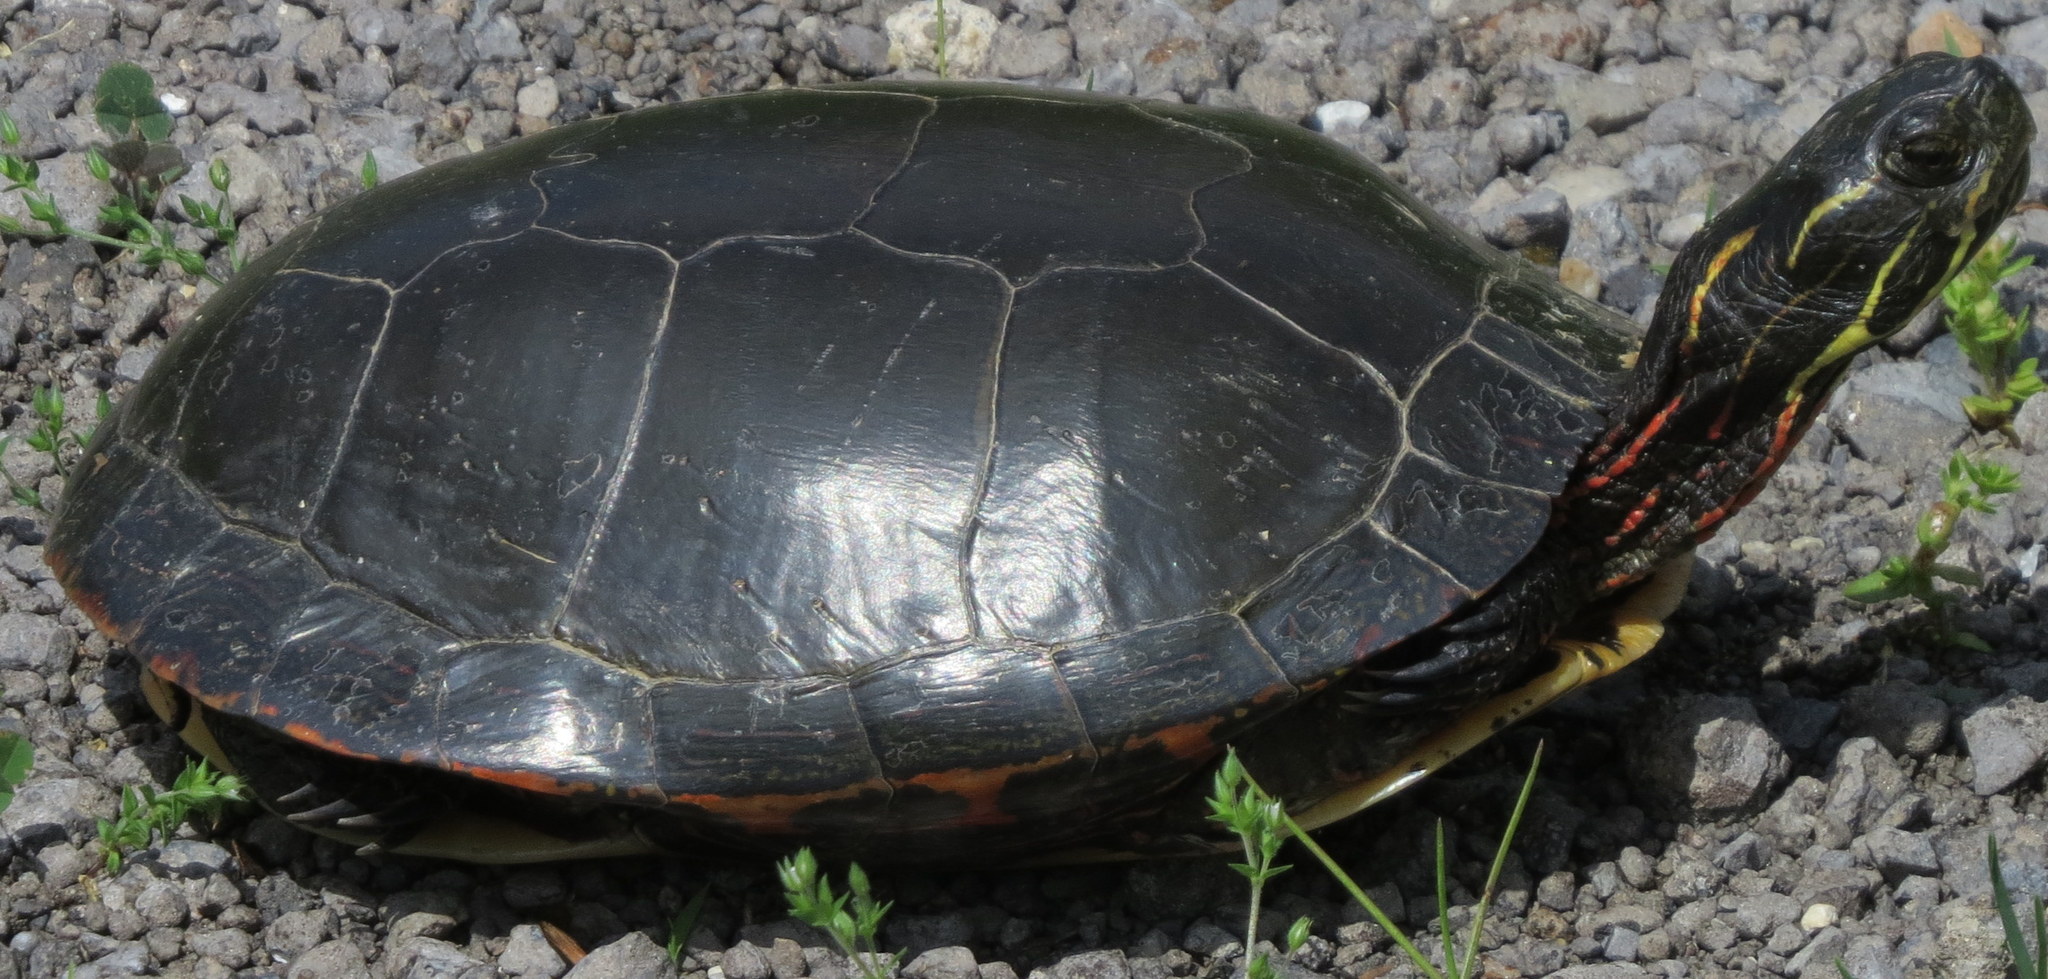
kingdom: Animalia
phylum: Chordata
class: Testudines
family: Emydidae
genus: Chrysemys
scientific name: Chrysemys picta
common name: Painted turtle
